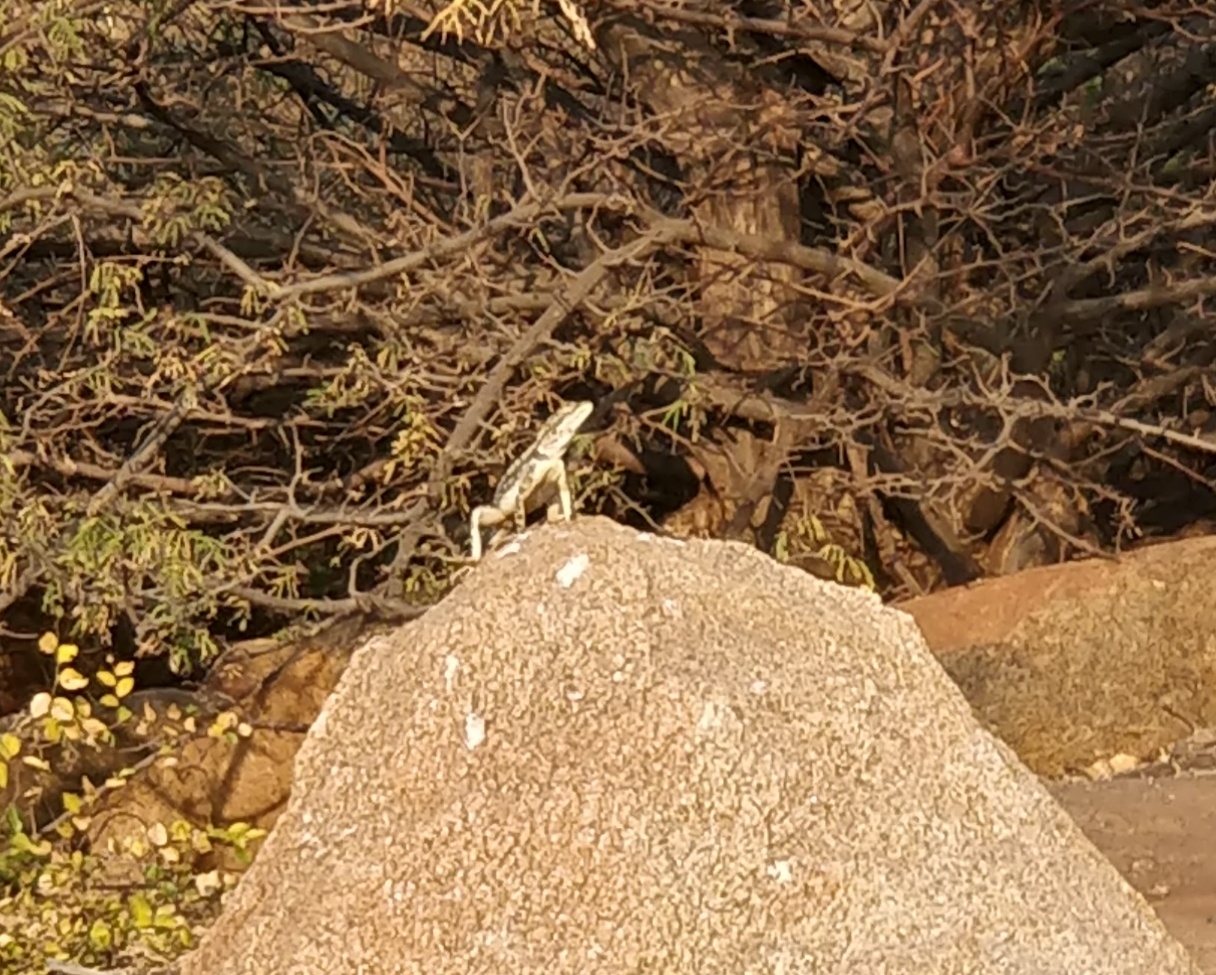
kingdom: Animalia
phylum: Chordata
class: Squamata
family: Agamidae
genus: Psammophilus
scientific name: Psammophilus dorsalis
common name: South indian rock agama
